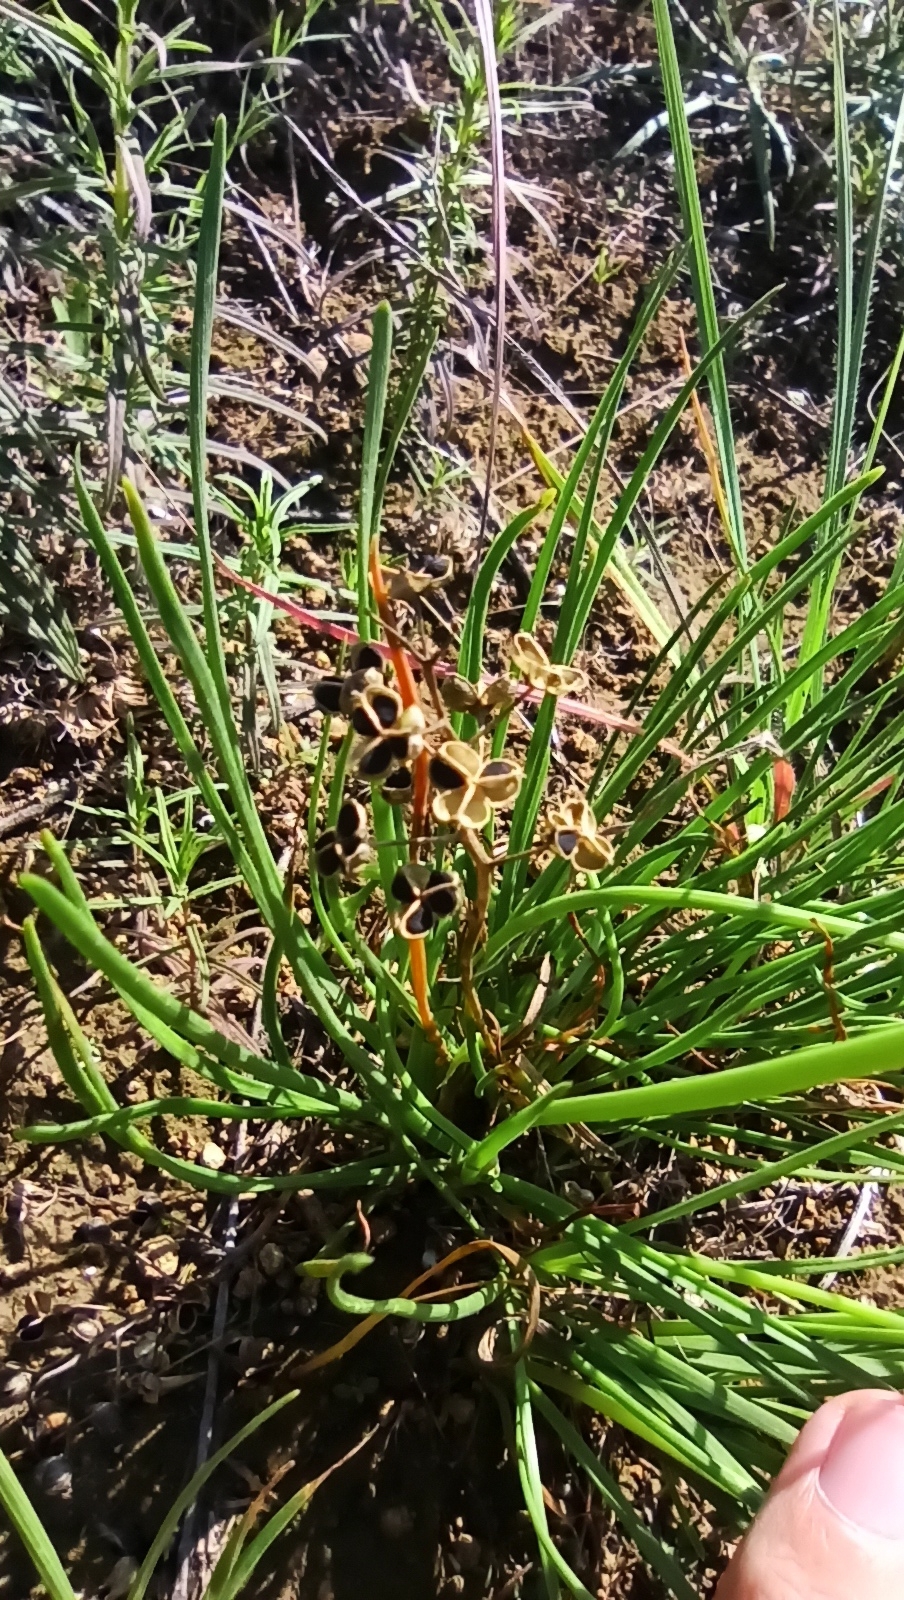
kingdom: Plantae
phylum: Tracheophyta
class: Liliopsida
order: Asparagales
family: Amaryllidaceae
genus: Allium
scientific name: Allium flavescens
